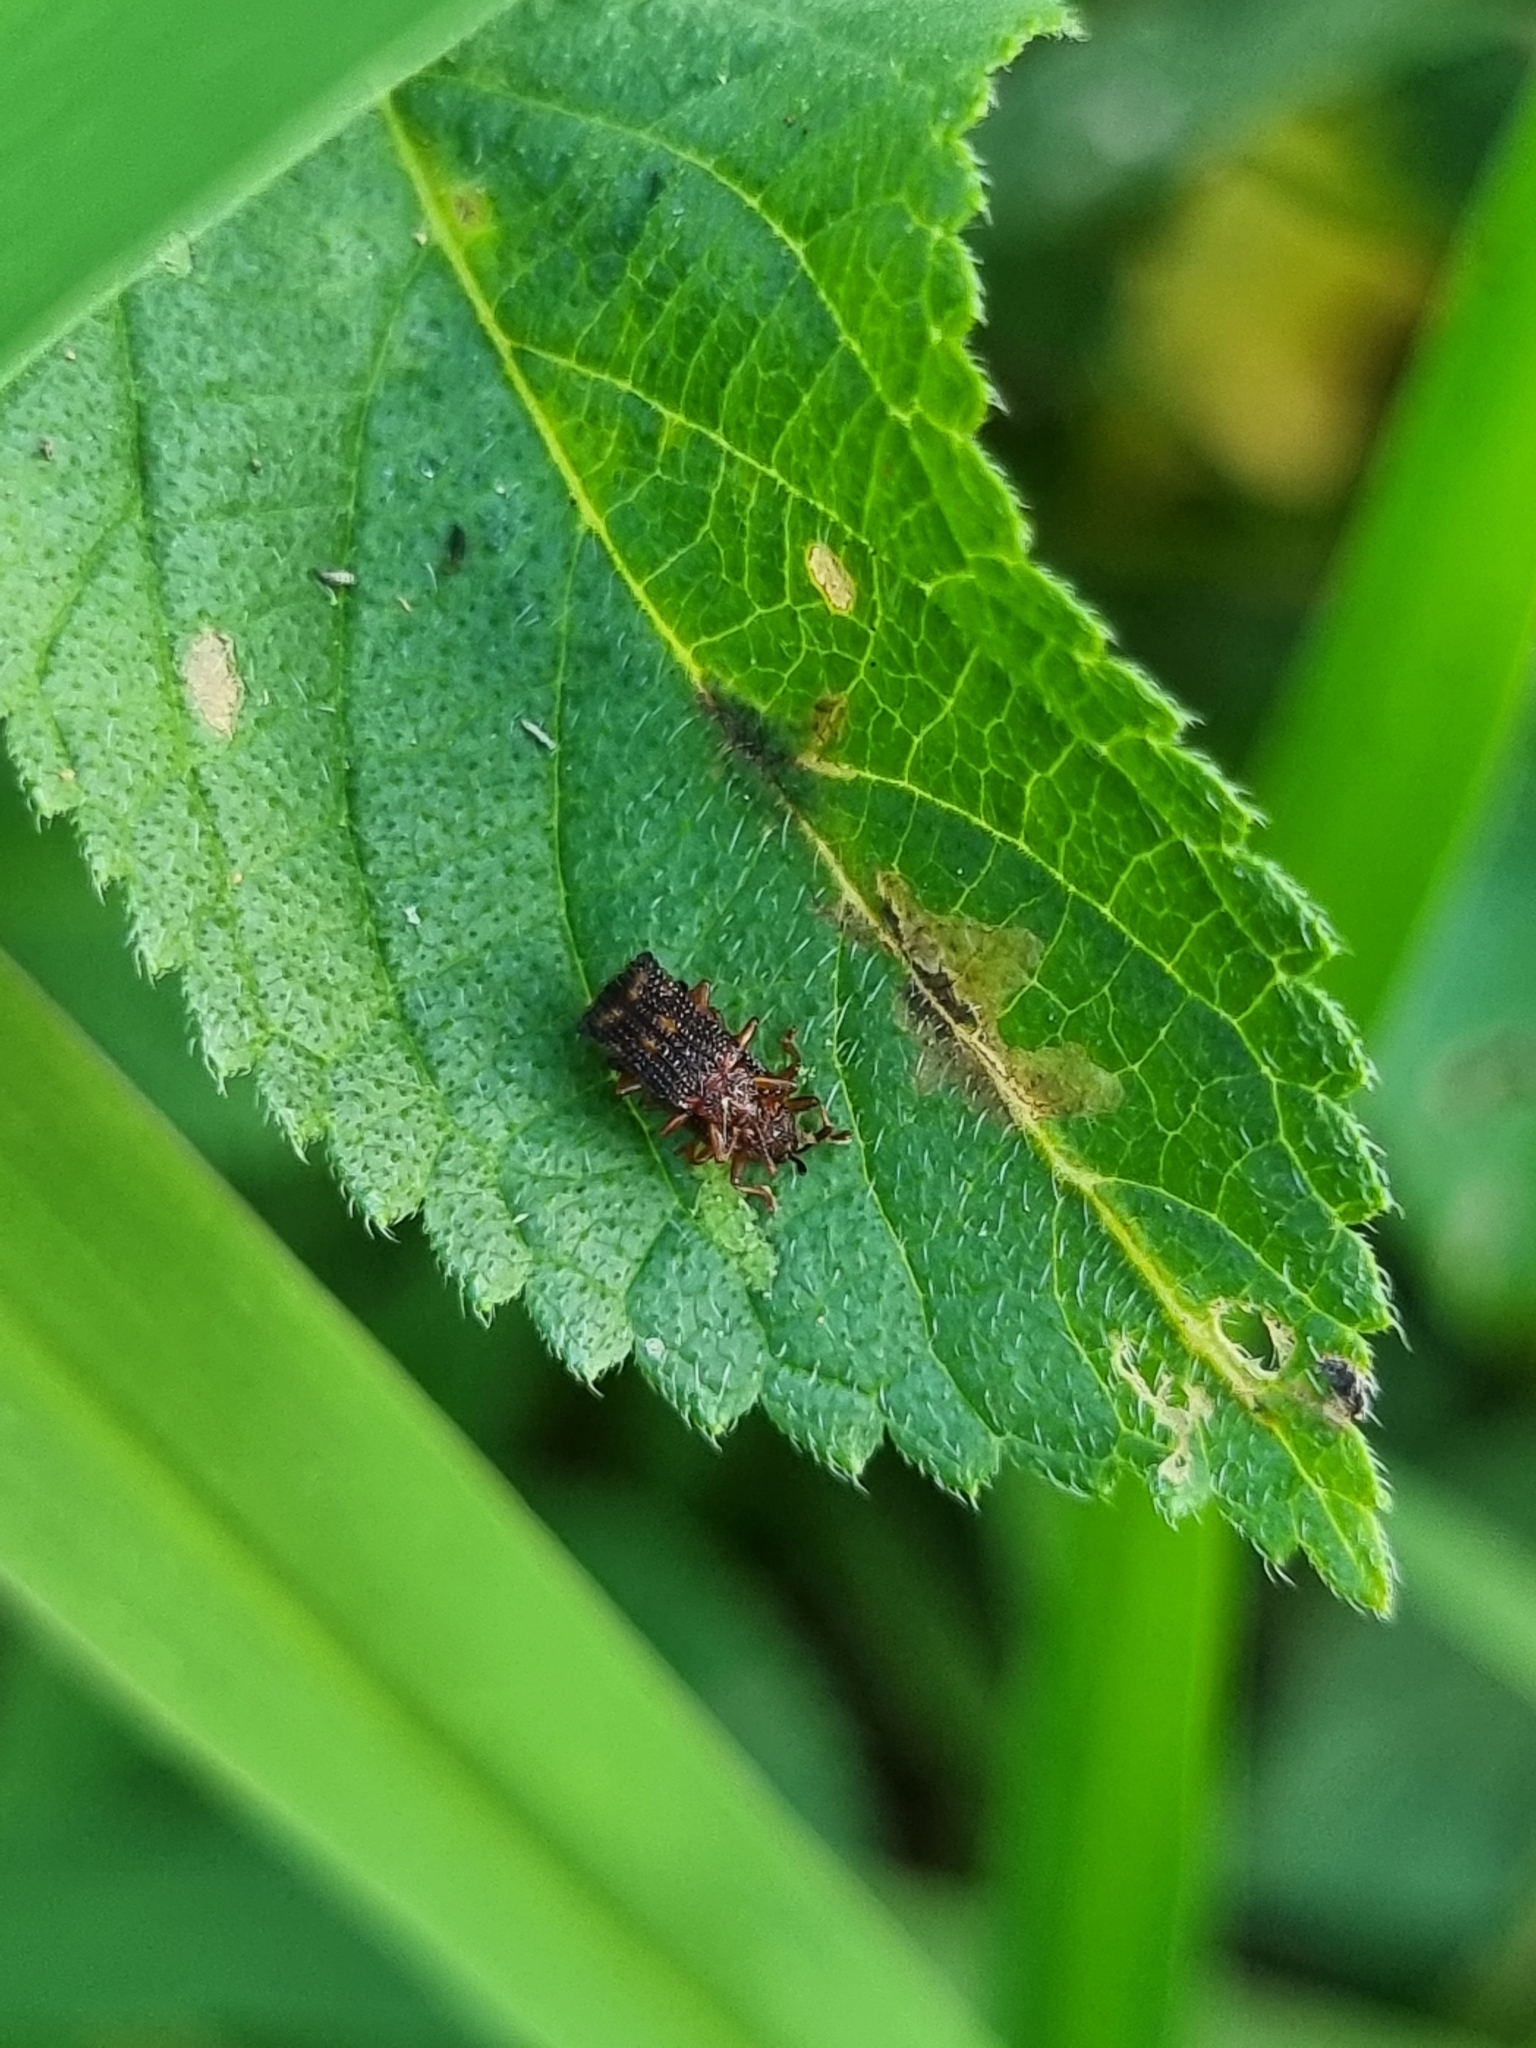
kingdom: Animalia
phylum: Arthropoda
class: Insecta
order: Coleoptera
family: Chrysomelidae
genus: Uroplata
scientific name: Uroplata girardi
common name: Lantana leafminer
